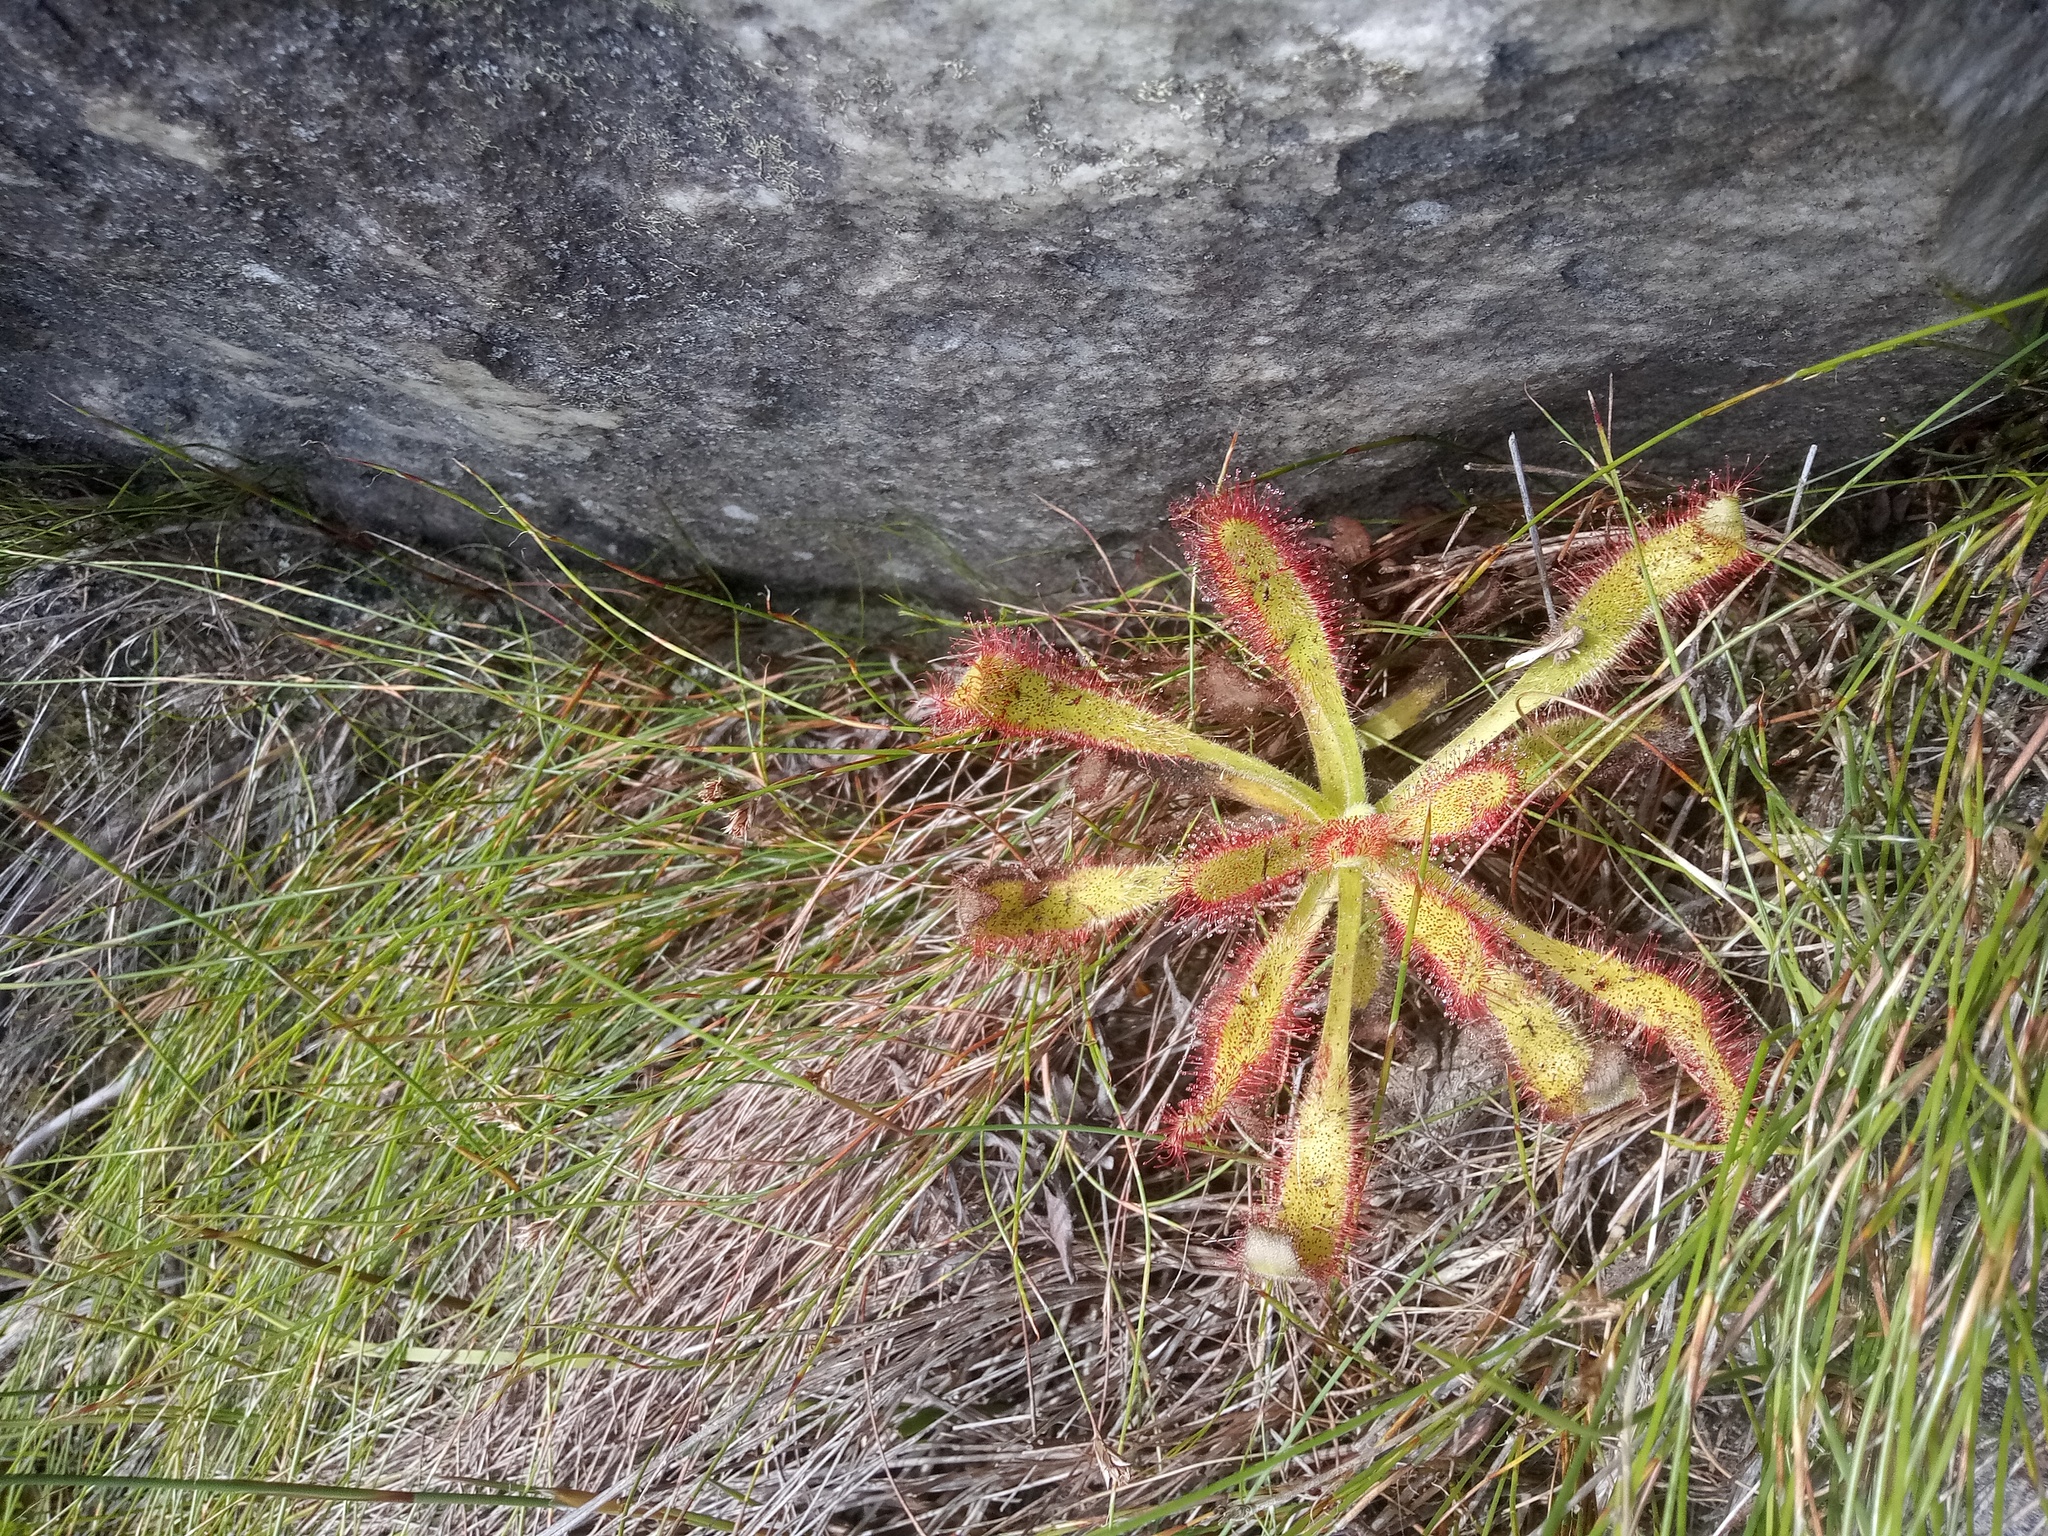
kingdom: Plantae
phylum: Tracheophyta
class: Magnoliopsida
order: Caryophyllales
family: Droseraceae
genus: Drosera
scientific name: Drosera hilaris
